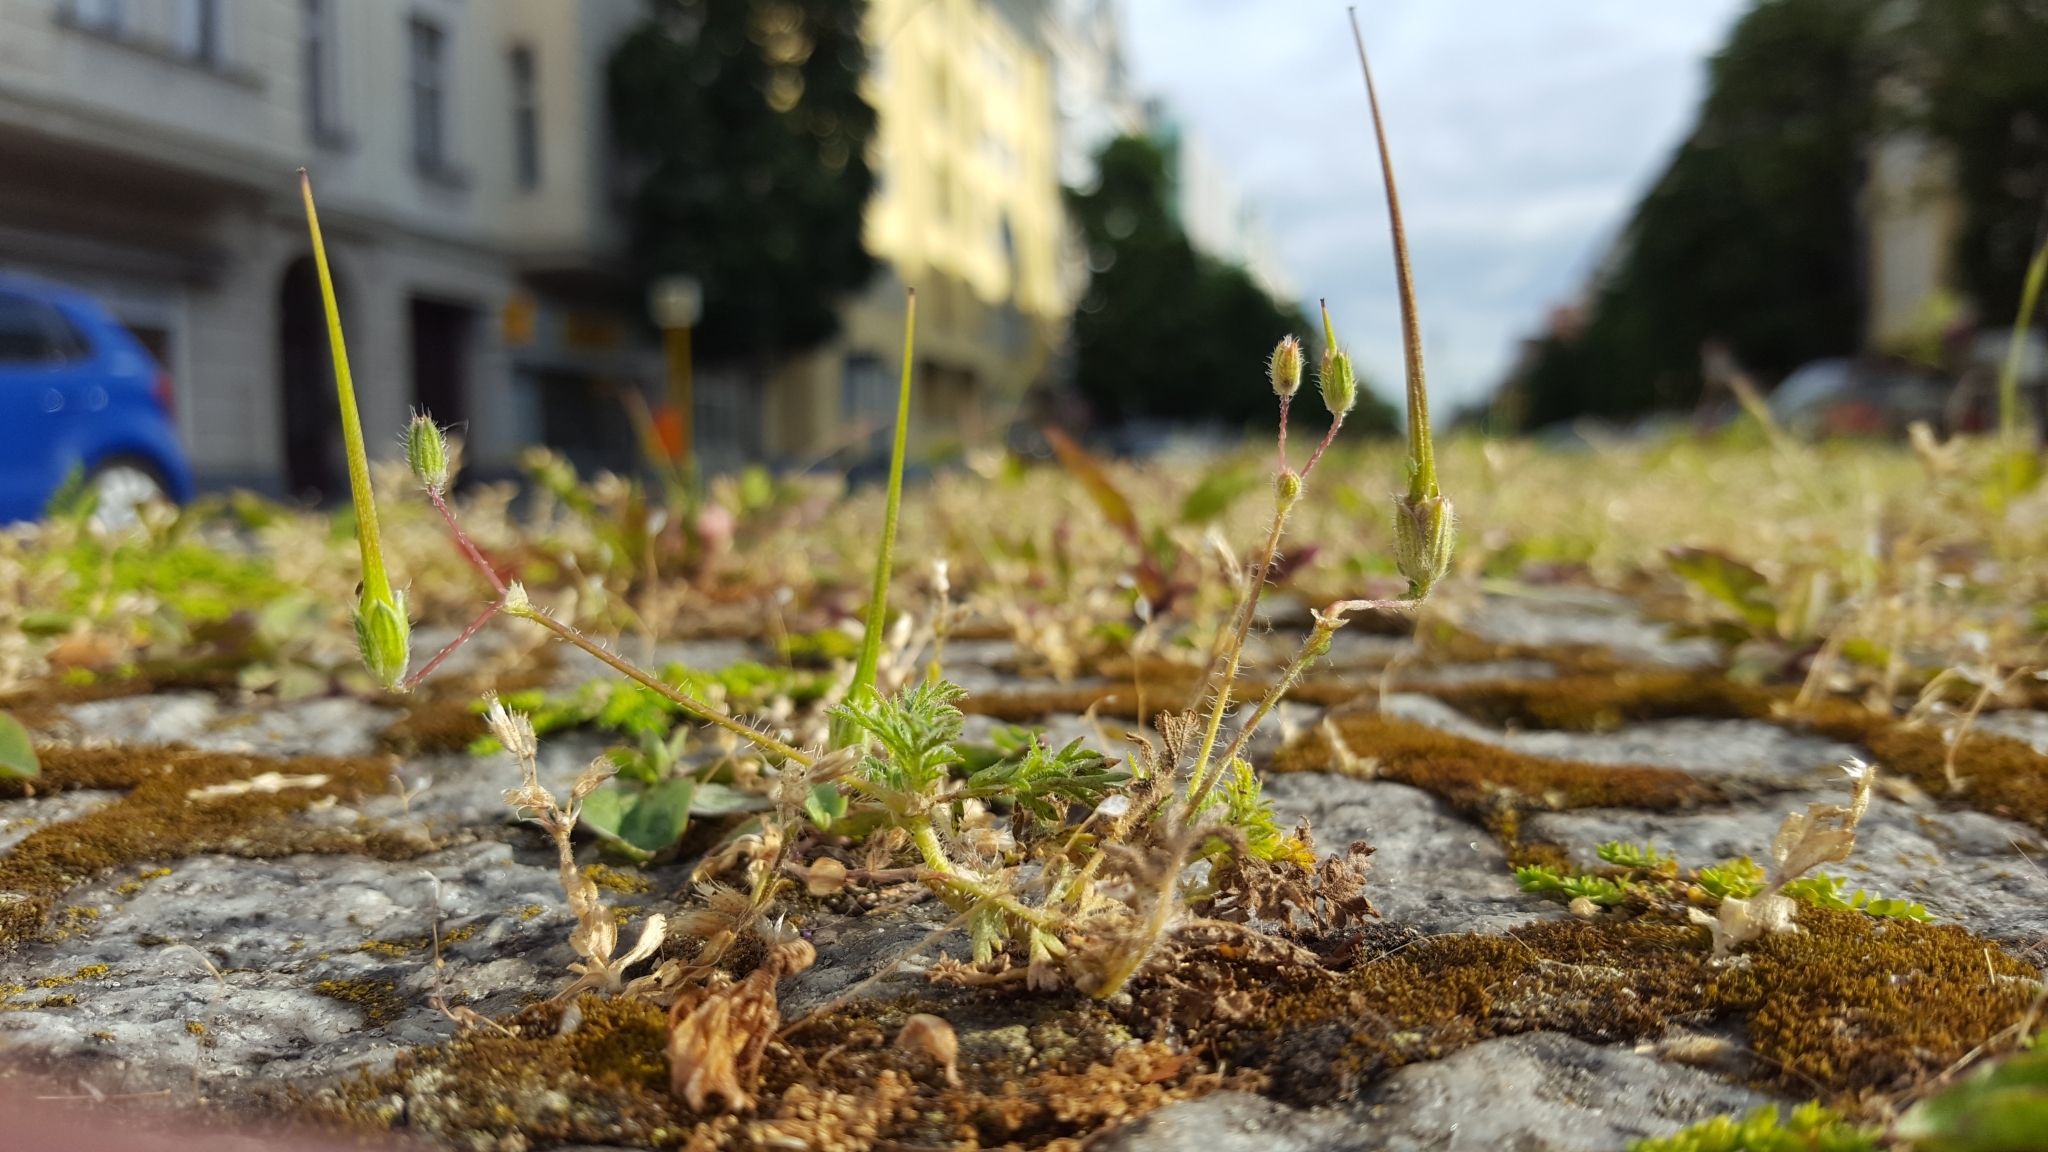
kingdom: Plantae
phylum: Tracheophyta
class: Magnoliopsida
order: Geraniales
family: Geraniaceae
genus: Erodium
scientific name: Erodium cicutarium
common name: Common stork's-bill
